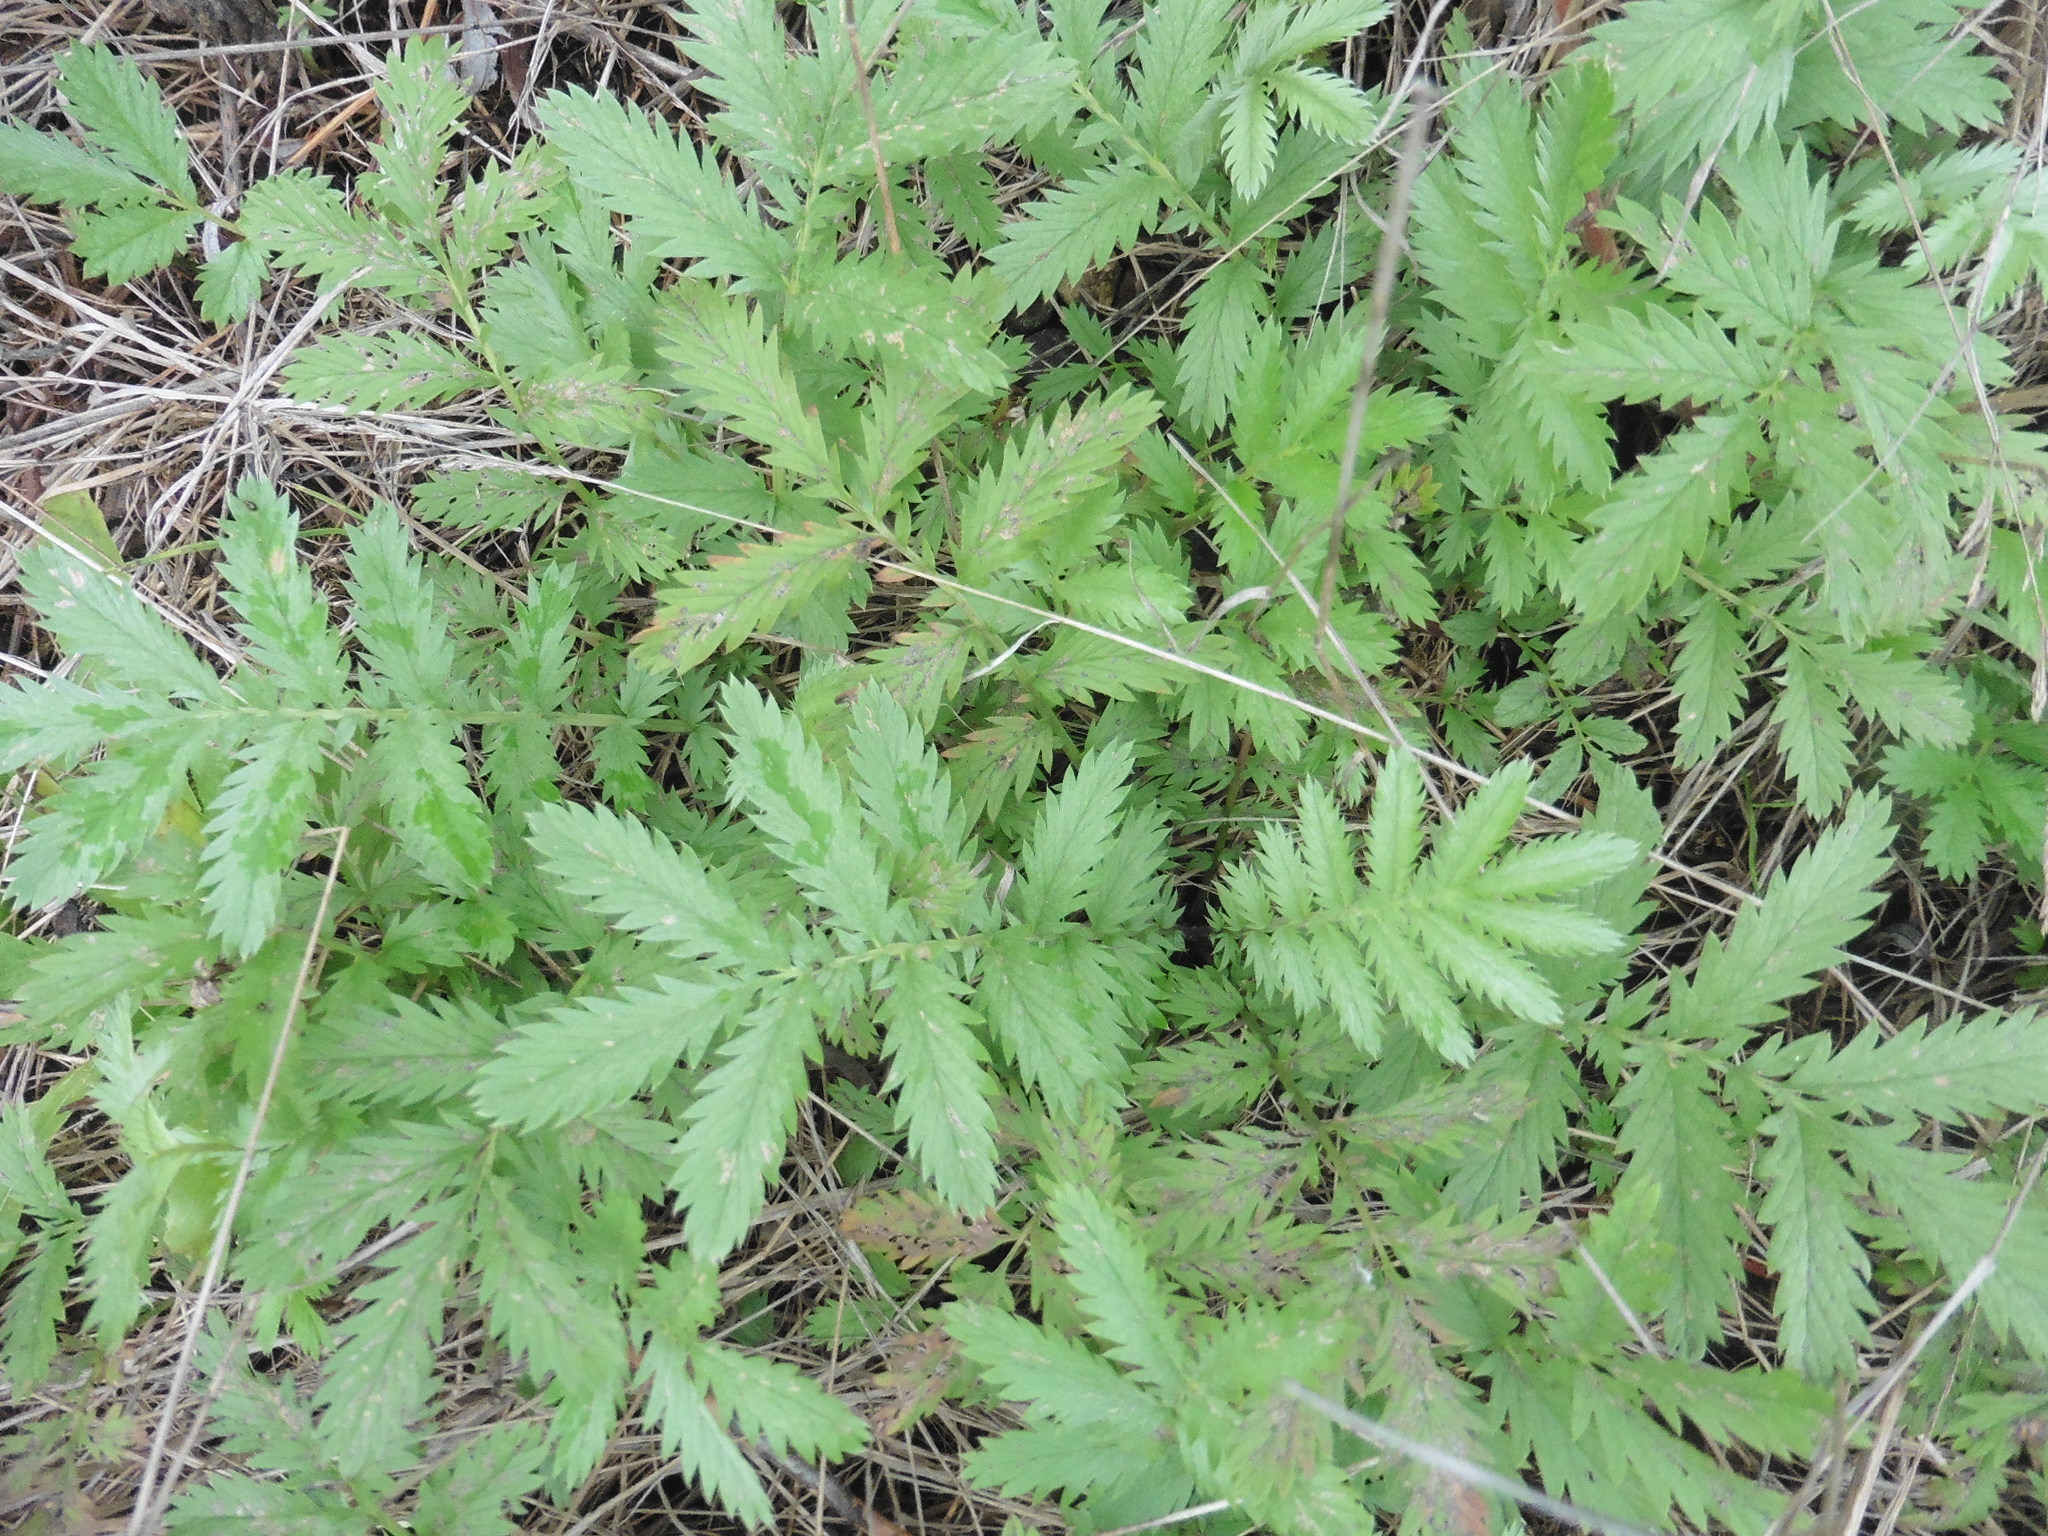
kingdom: Plantae
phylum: Tracheophyta
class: Magnoliopsida
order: Rosales
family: Rosaceae
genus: Argentina
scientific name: Argentina anserina
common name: Common silverweed
